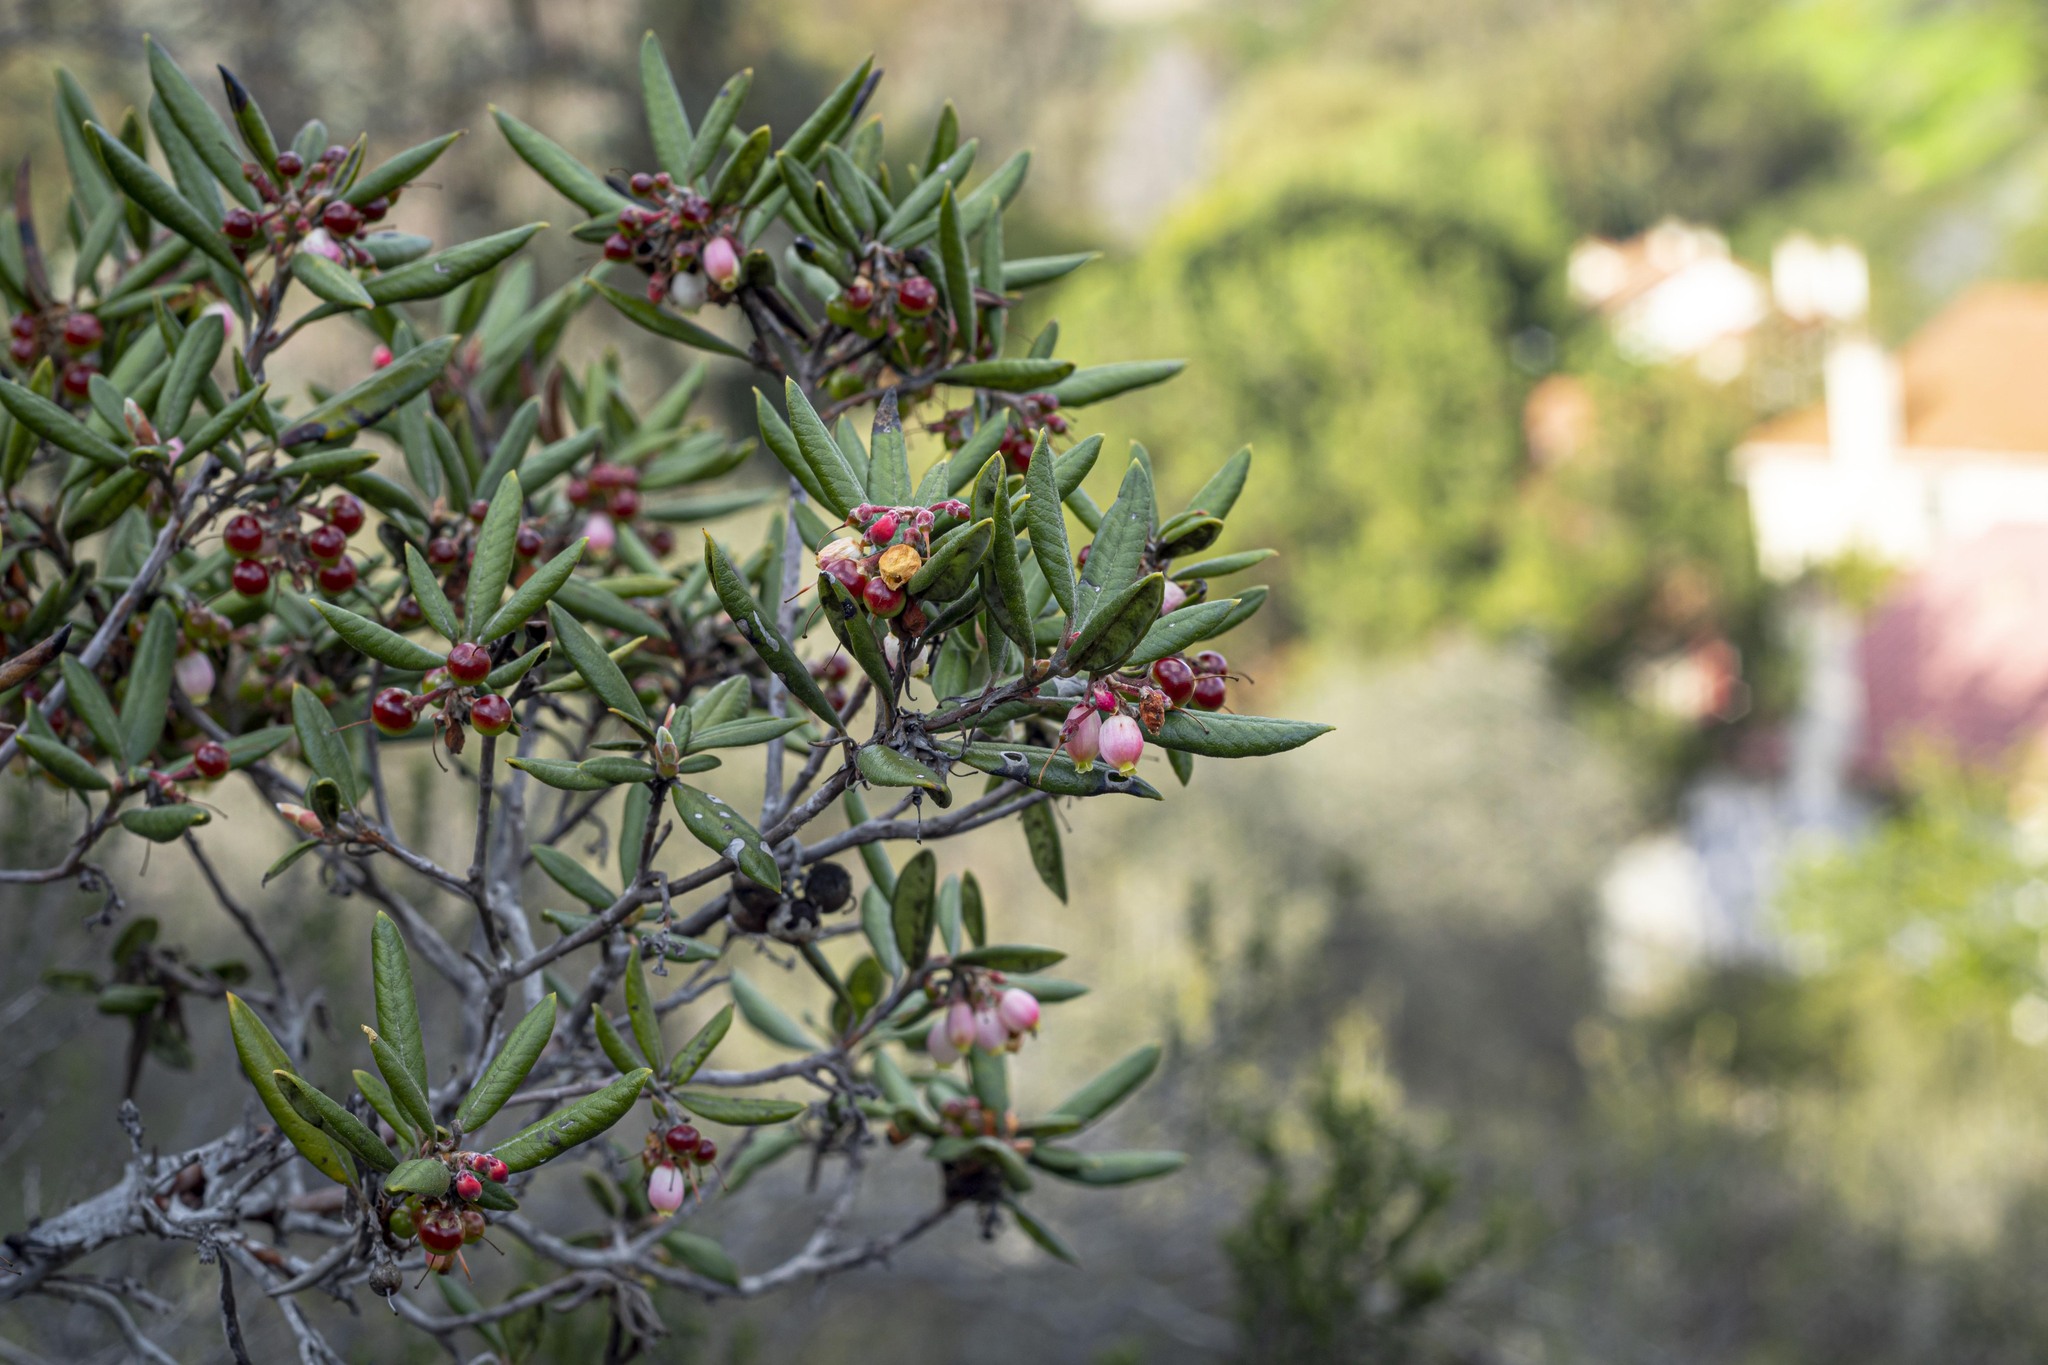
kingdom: Plantae
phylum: Tracheophyta
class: Magnoliopsida
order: Ericales
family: Ericaceae
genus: Arctostaphylos
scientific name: Arctostaphylos bicolor
